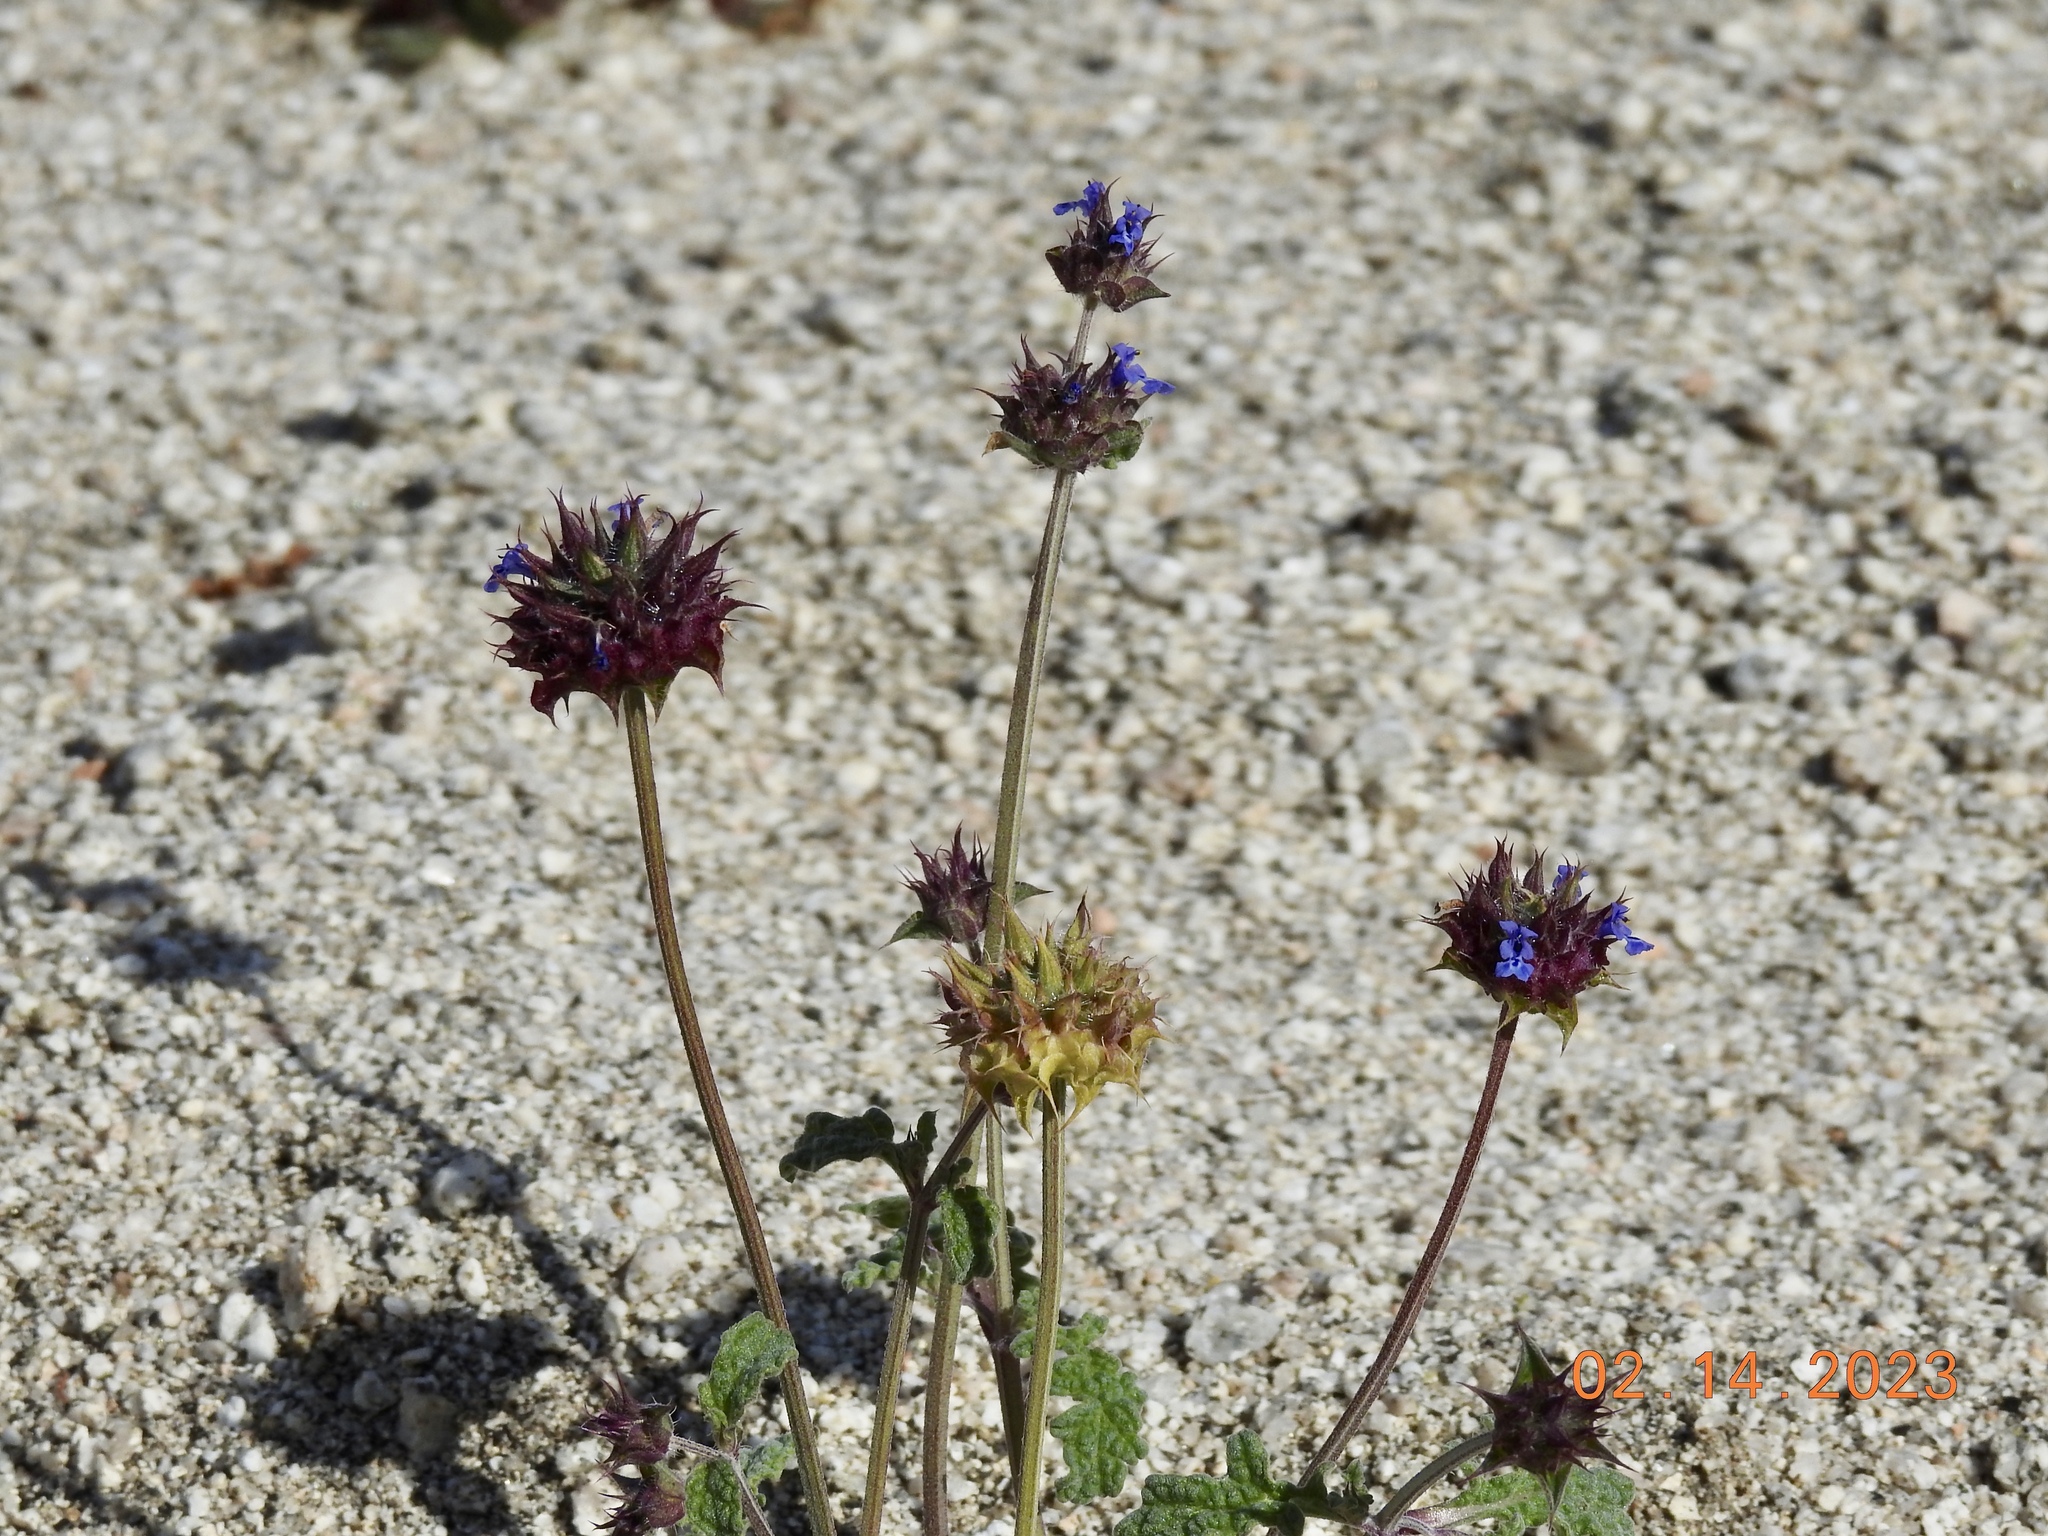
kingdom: Plantae
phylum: Tracheophyta
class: Magnoliopsida
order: Lamiales
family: Lamiaceae
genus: Salvia
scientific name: Salvia columbariae
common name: Chia
